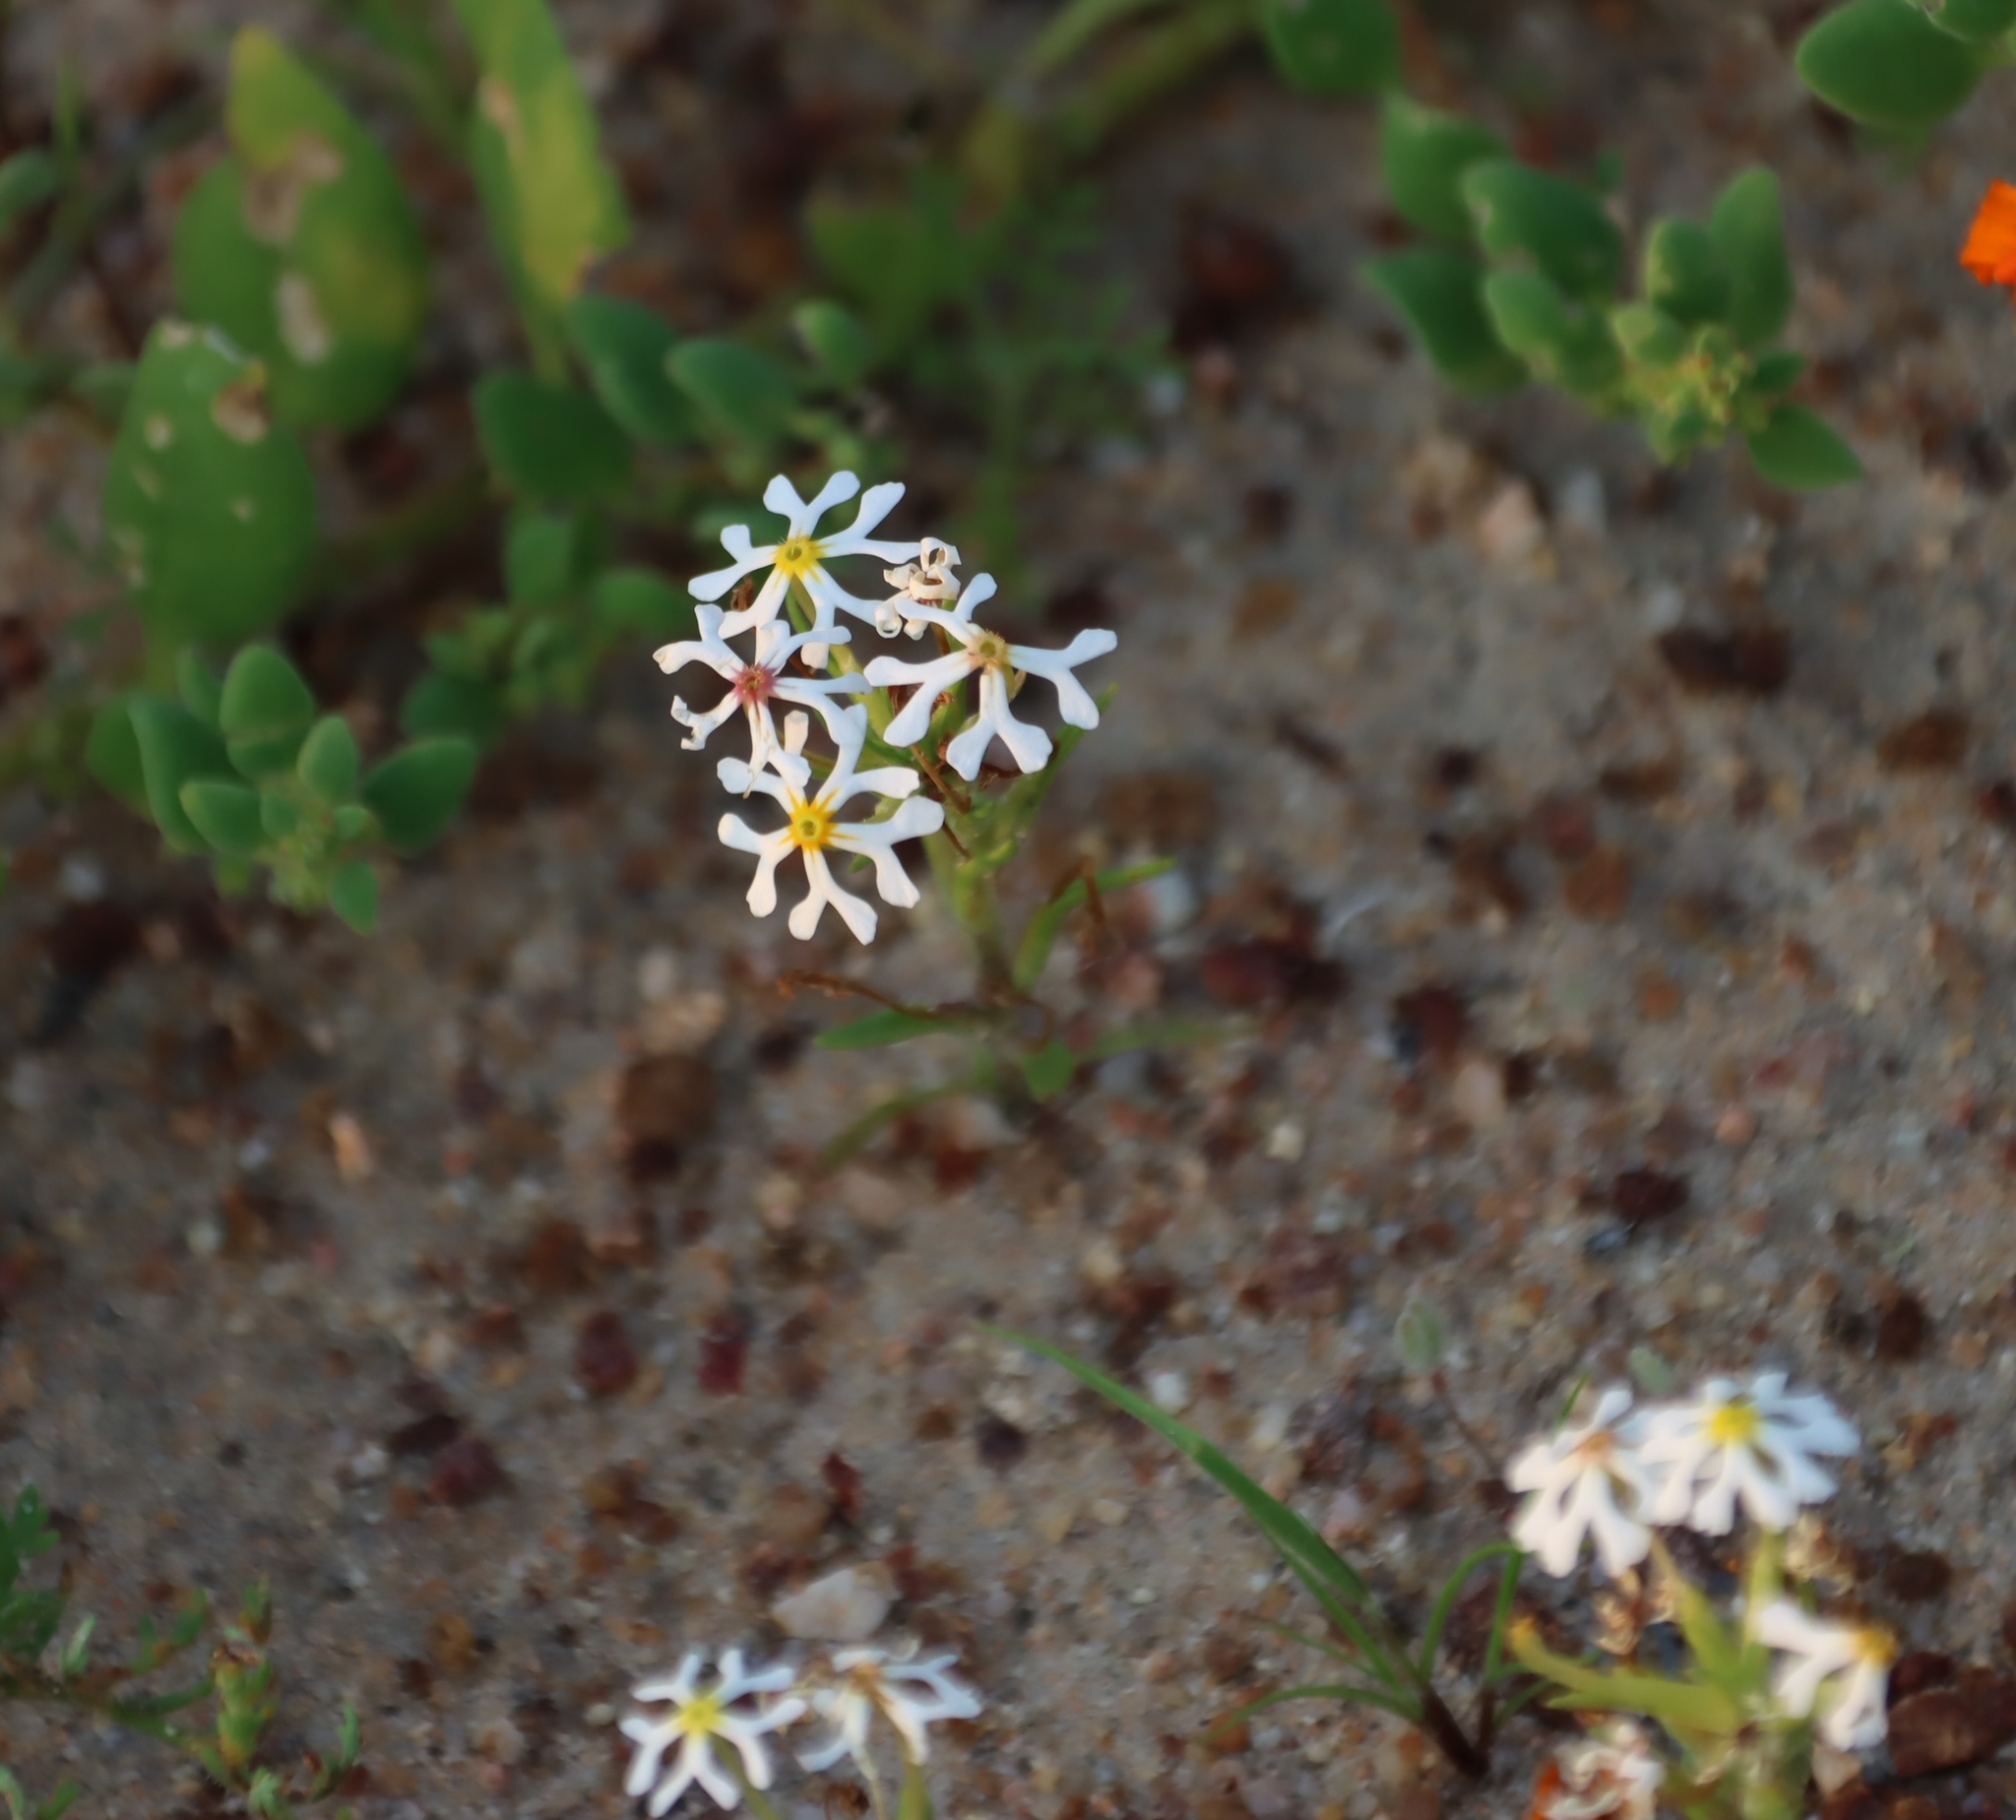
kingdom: Plantae
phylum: Tracheophyta
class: Magnoliopsida
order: Lamiales
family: Scrophulariaceae
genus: Zaluzianskya
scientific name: Zaluzianskya affinis
